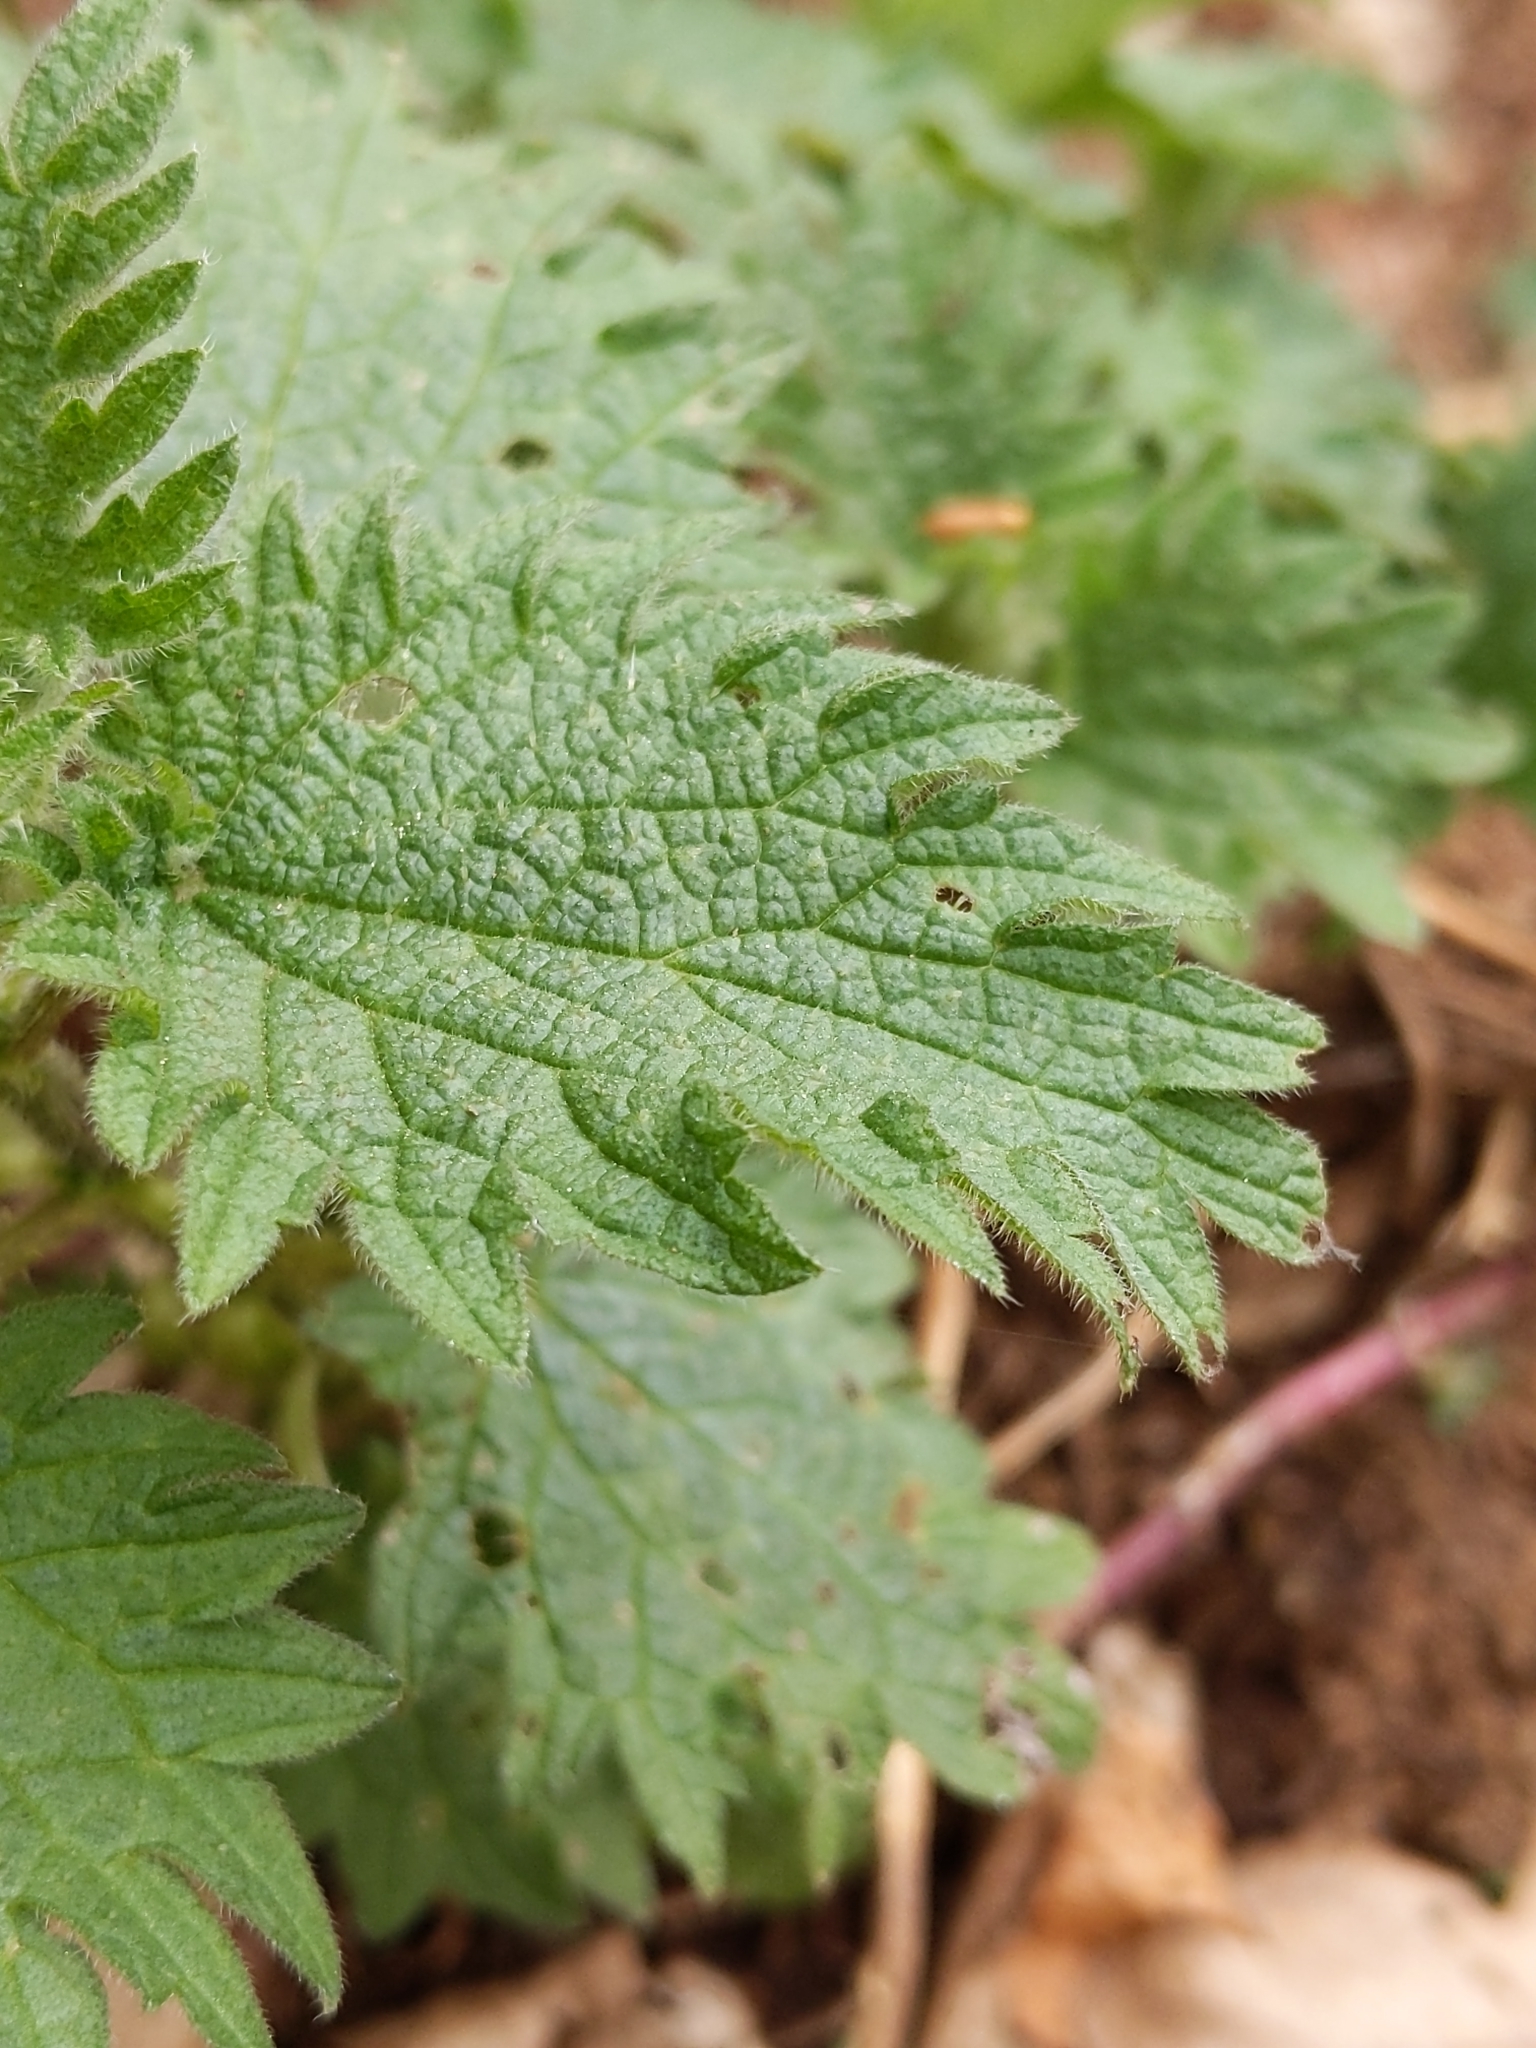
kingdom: Plantae
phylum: Tracheophyta
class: Magnoliopsida
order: Rosales
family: Urticaceae
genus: Urtica
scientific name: Urtica dioica
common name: Common nettle
